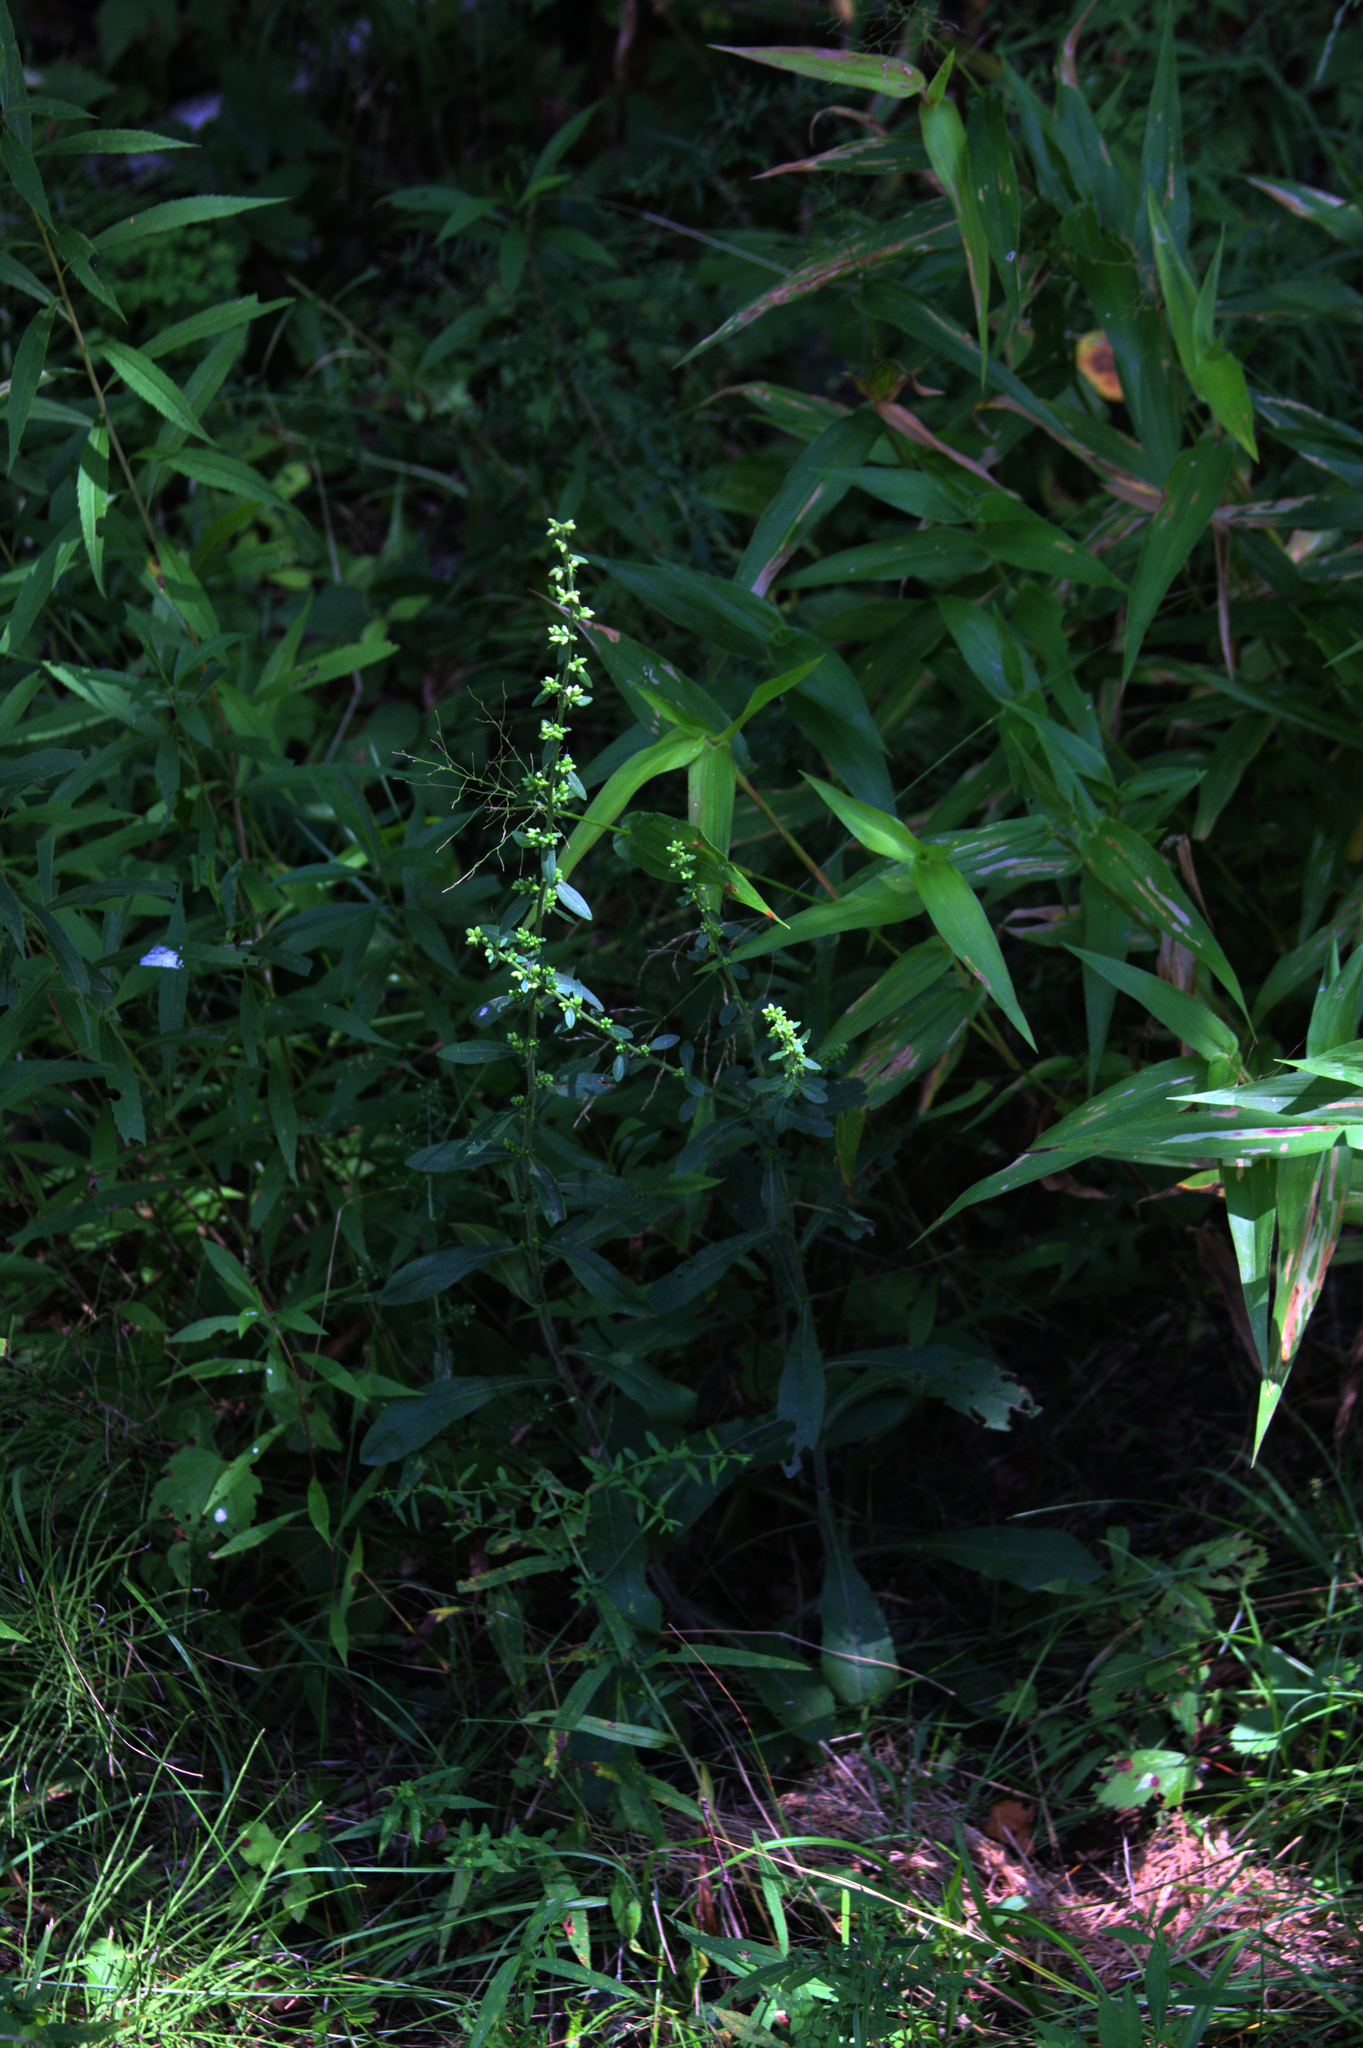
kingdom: Plantae
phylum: Tracheophyta
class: Magnoliopsida
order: Asterales
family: Asteraceae
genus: Solidago
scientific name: Solidago bicolor
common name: Silverrod
